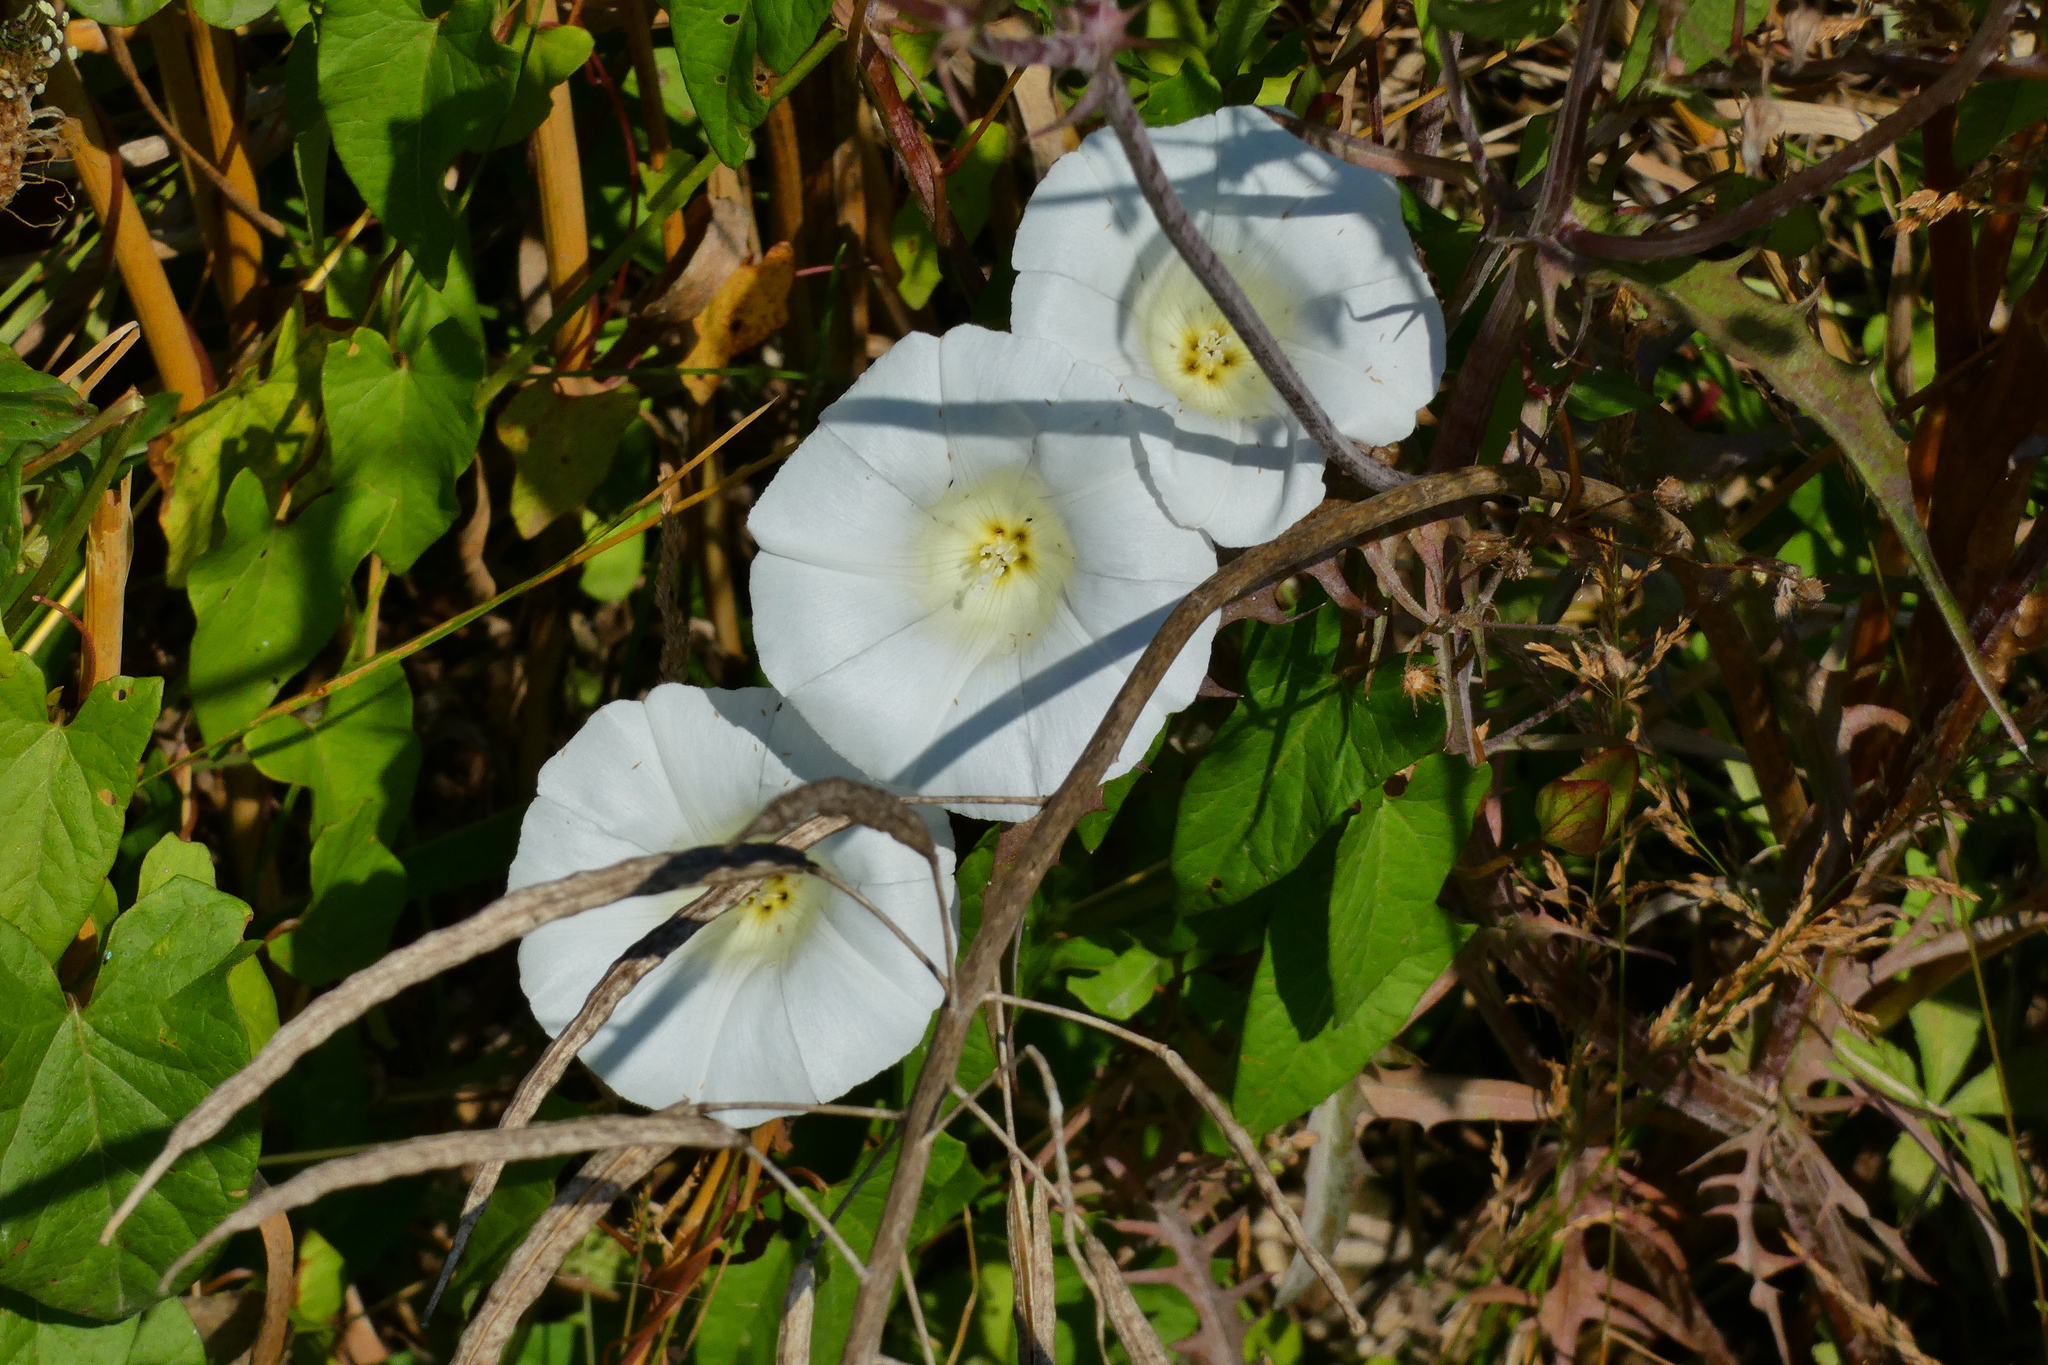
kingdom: Plantae
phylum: Tracheophyta
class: Magnoliopsida
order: Solanales
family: Convolvulaceae
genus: Calystegia
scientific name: Calystegia sepium
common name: Hedge bindweed
